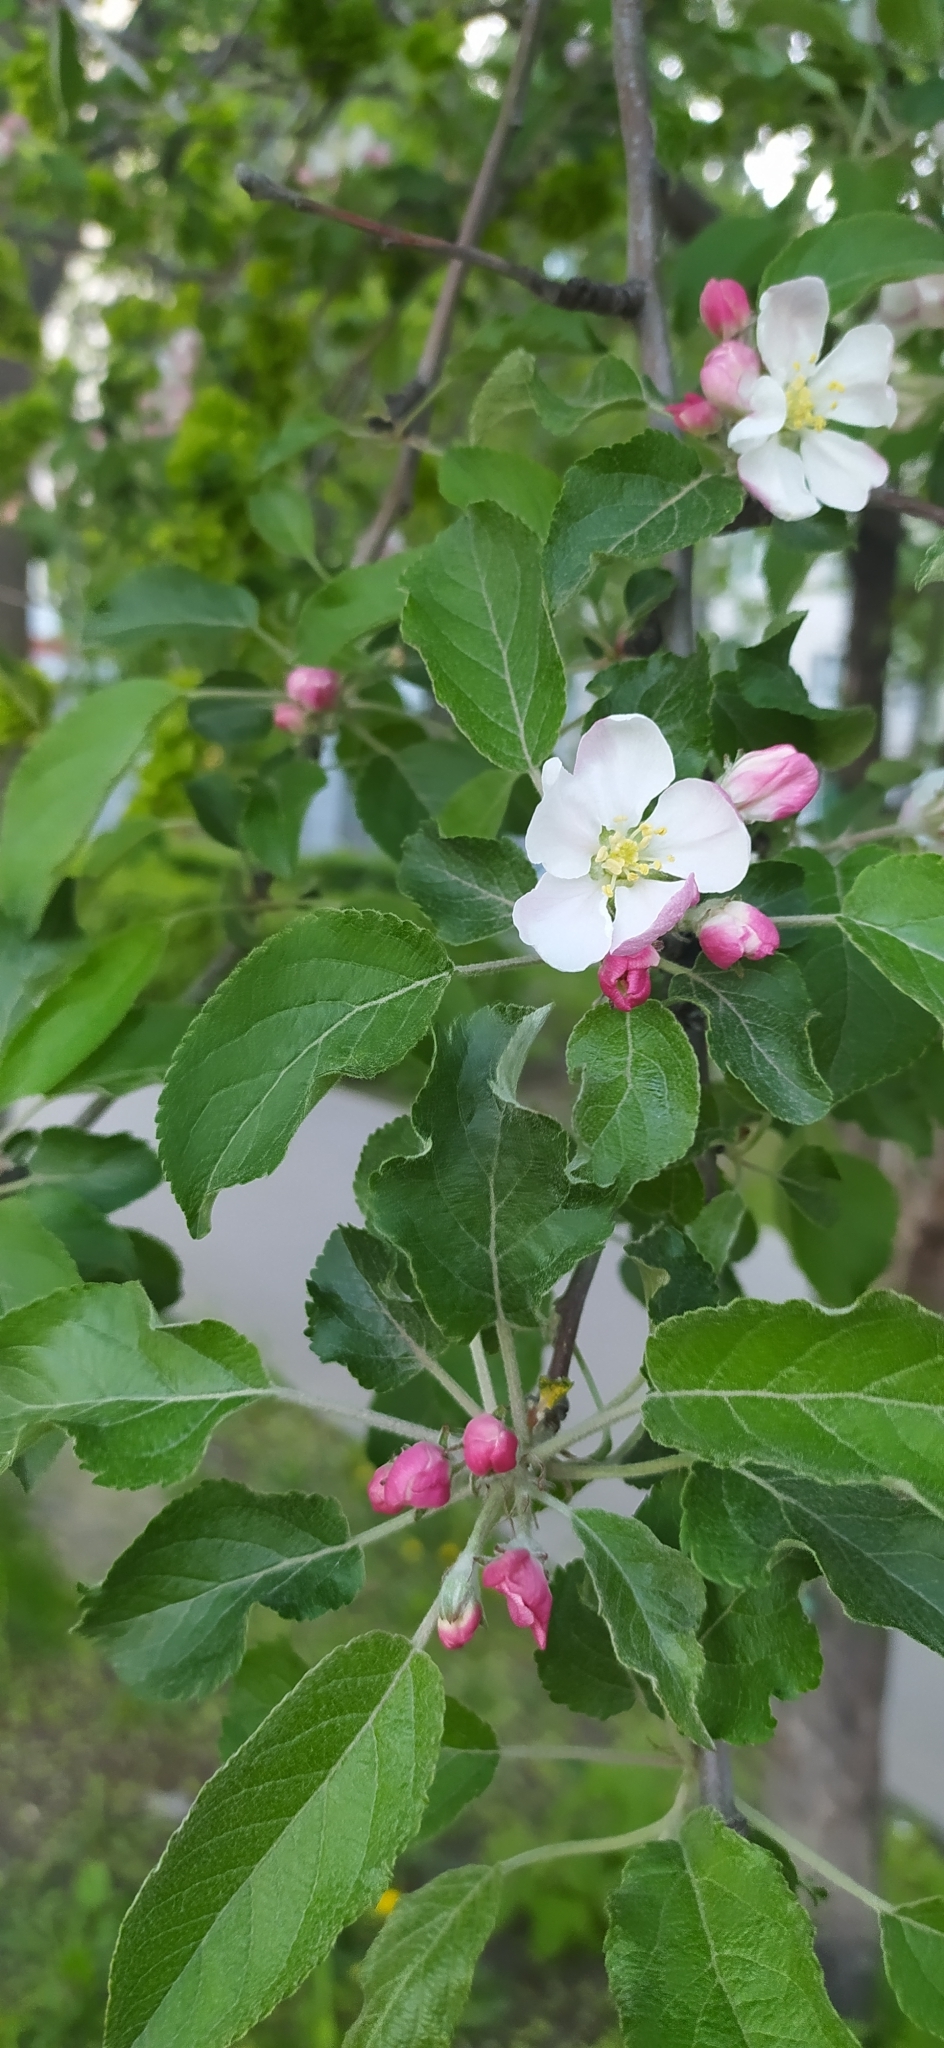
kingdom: Plantae
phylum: Tracheophyta
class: Magnoliopsida
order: Rosales
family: Rosaceae
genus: Malus
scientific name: Malus domestica
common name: Apple
